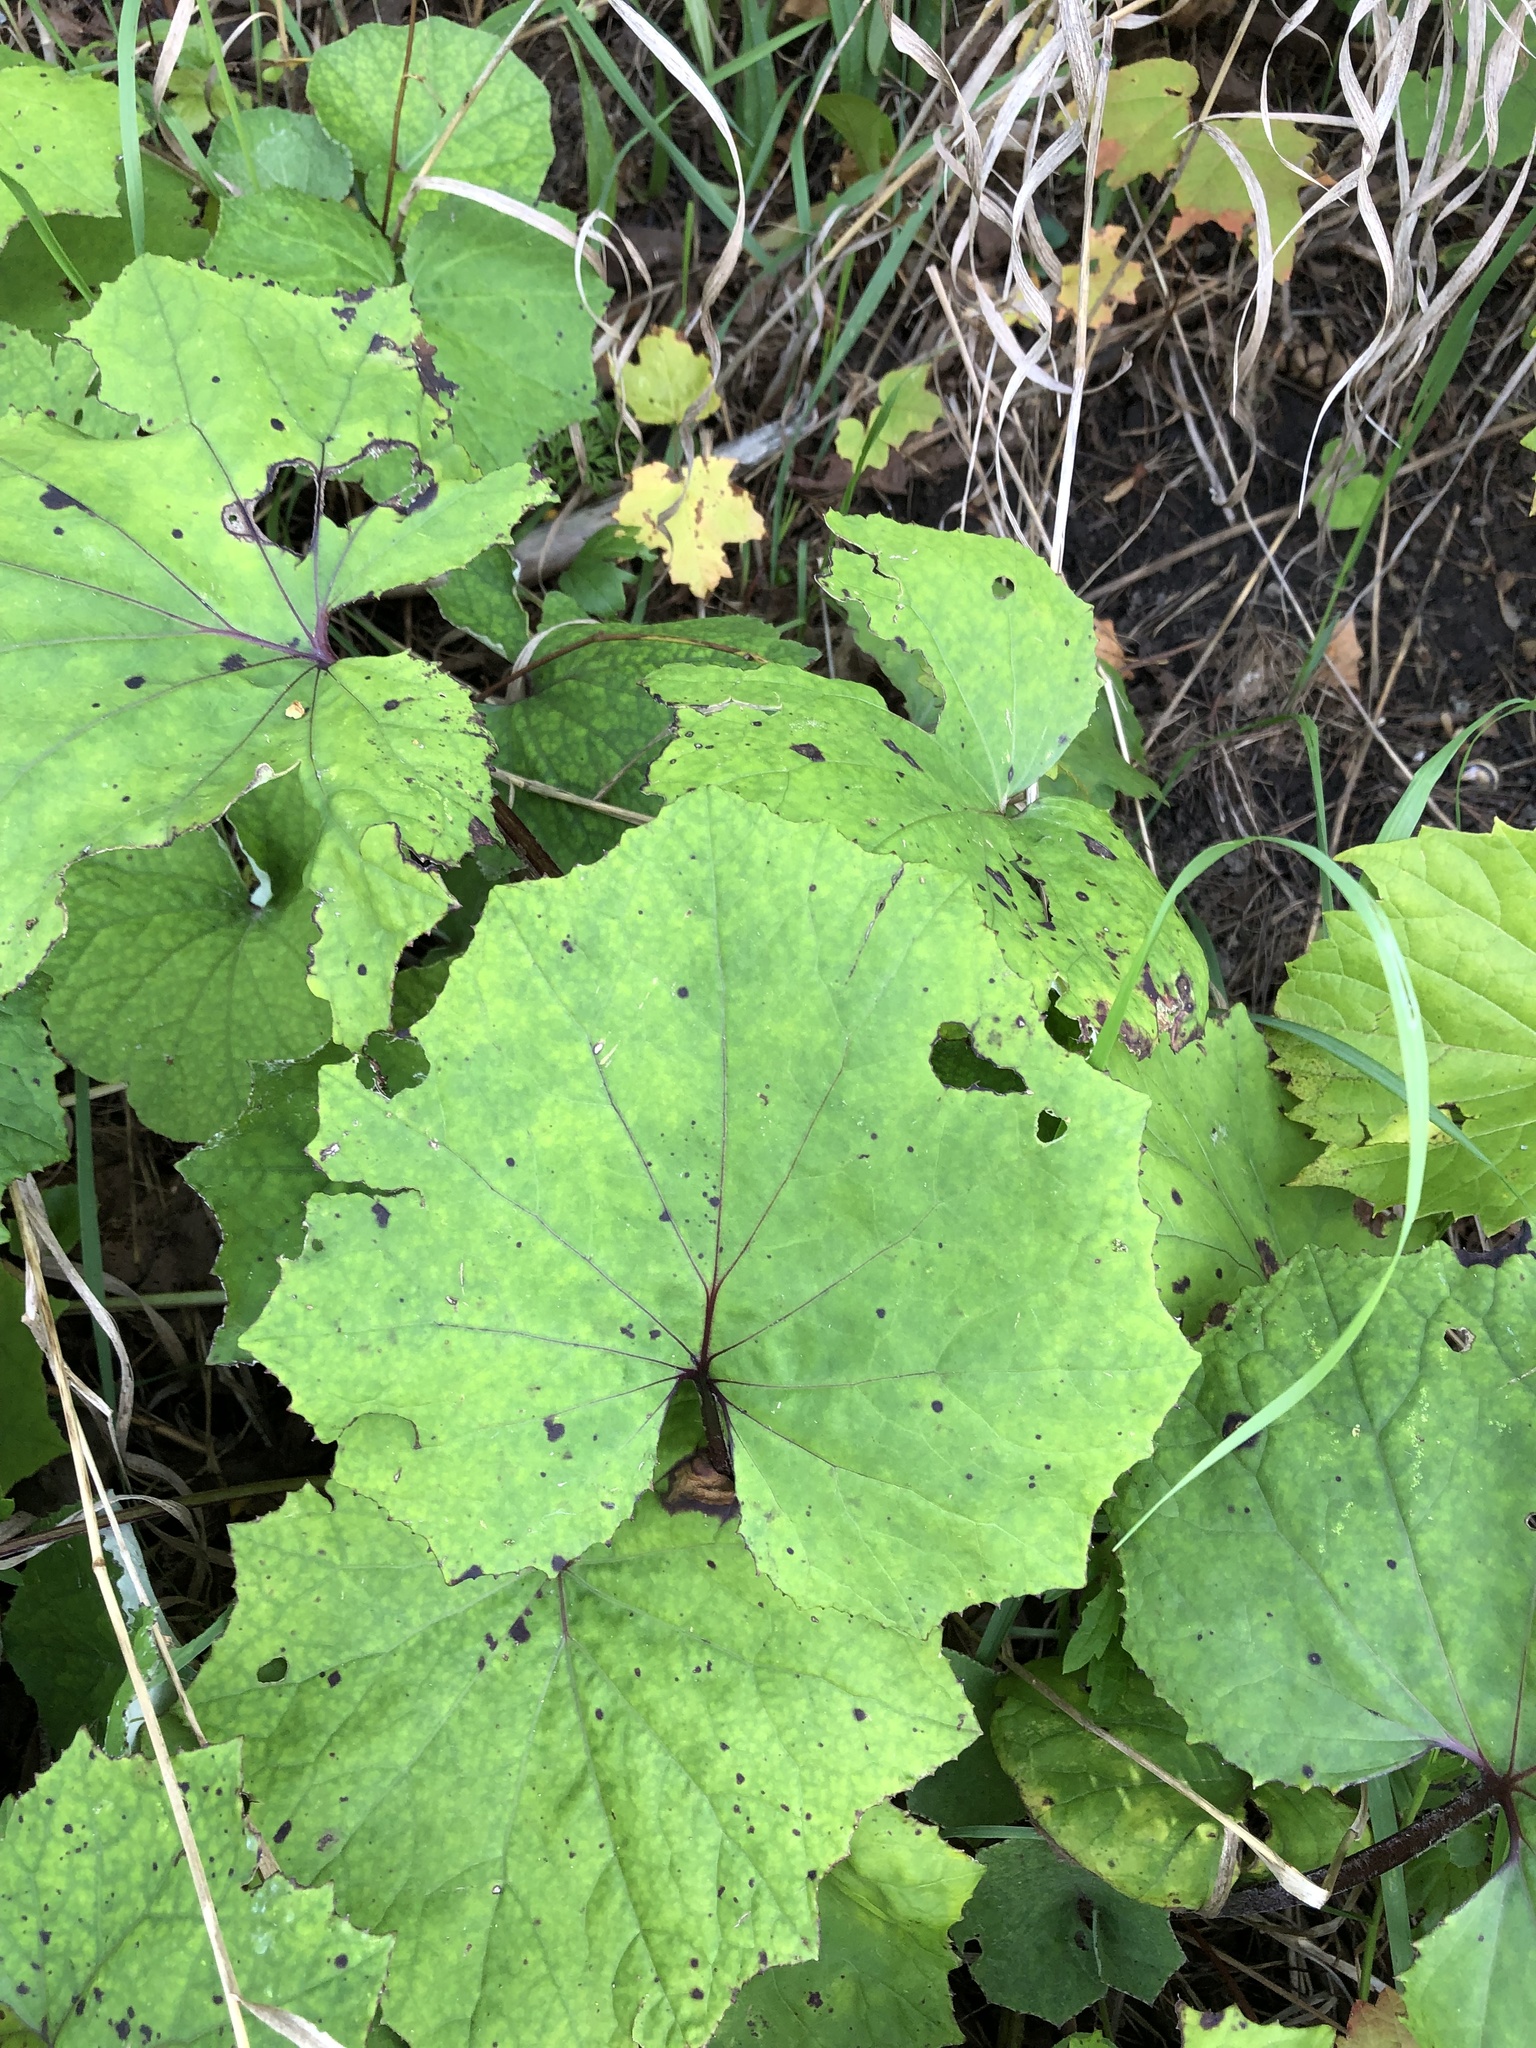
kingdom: Plantae
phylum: Tracheophyta
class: Magnoliopsida
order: Asterales
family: Asteraceae
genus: Tussilago
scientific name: Tussilago farfara
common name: Coltsfoot
